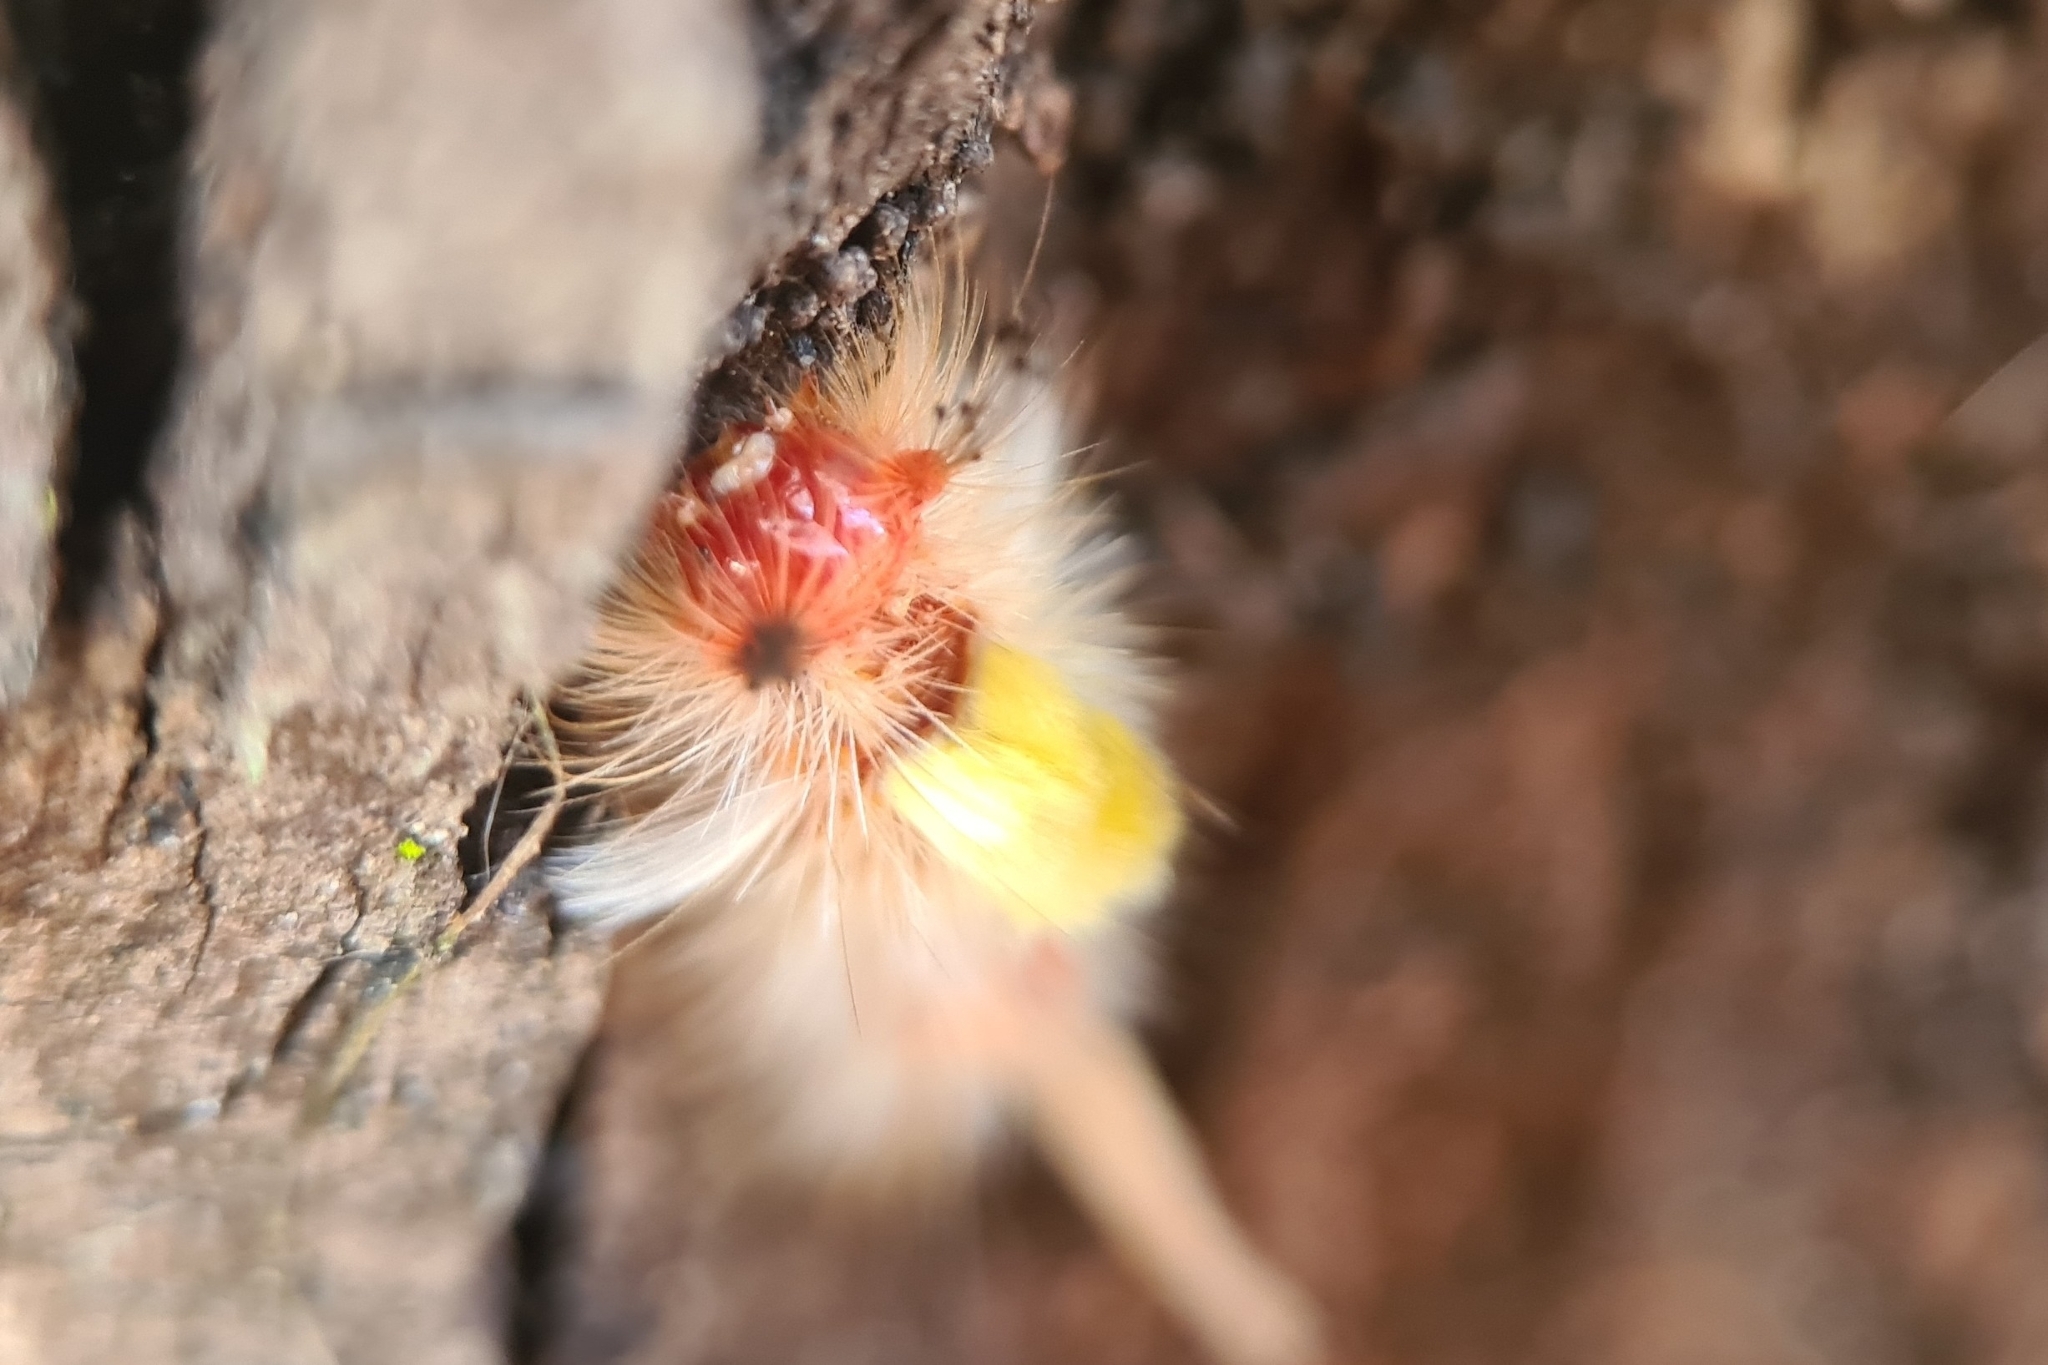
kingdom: Animalia
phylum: Arthropoda
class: Insecta
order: Lepidoptera
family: Erebidae
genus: Orgyia
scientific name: Orgyia australis
